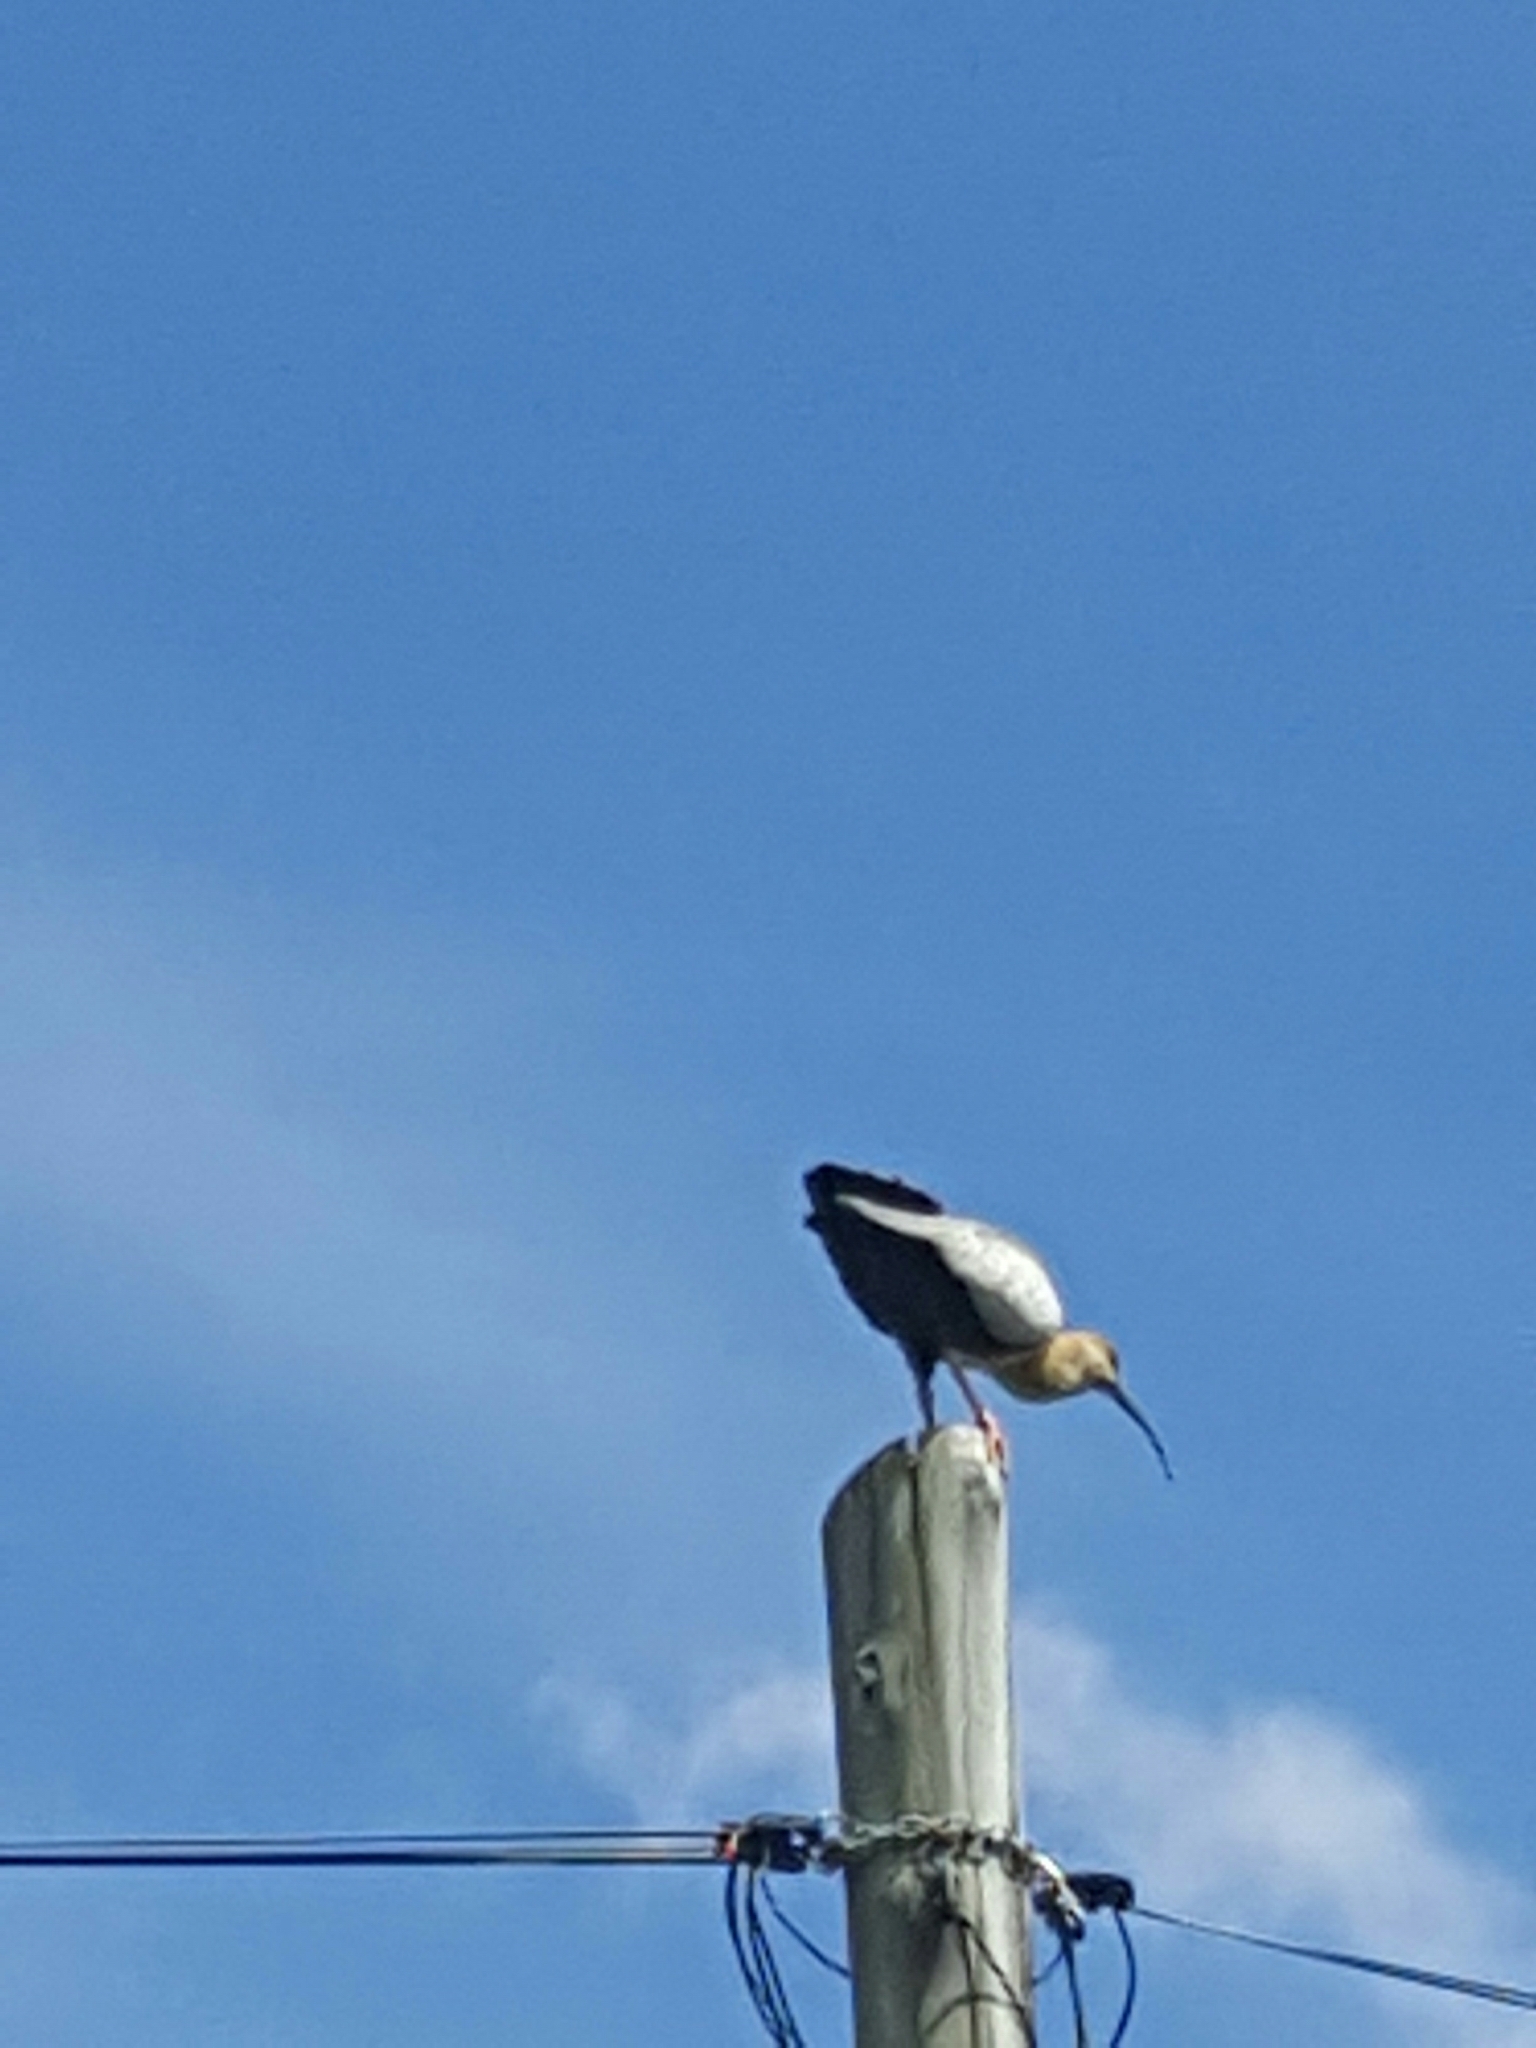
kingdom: Animalia
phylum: Chordata
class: Aves
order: Pelecaniformes
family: Threskiornithidae
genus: Theristicus
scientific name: Theristicus melanopis
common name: Black-faced ibis
